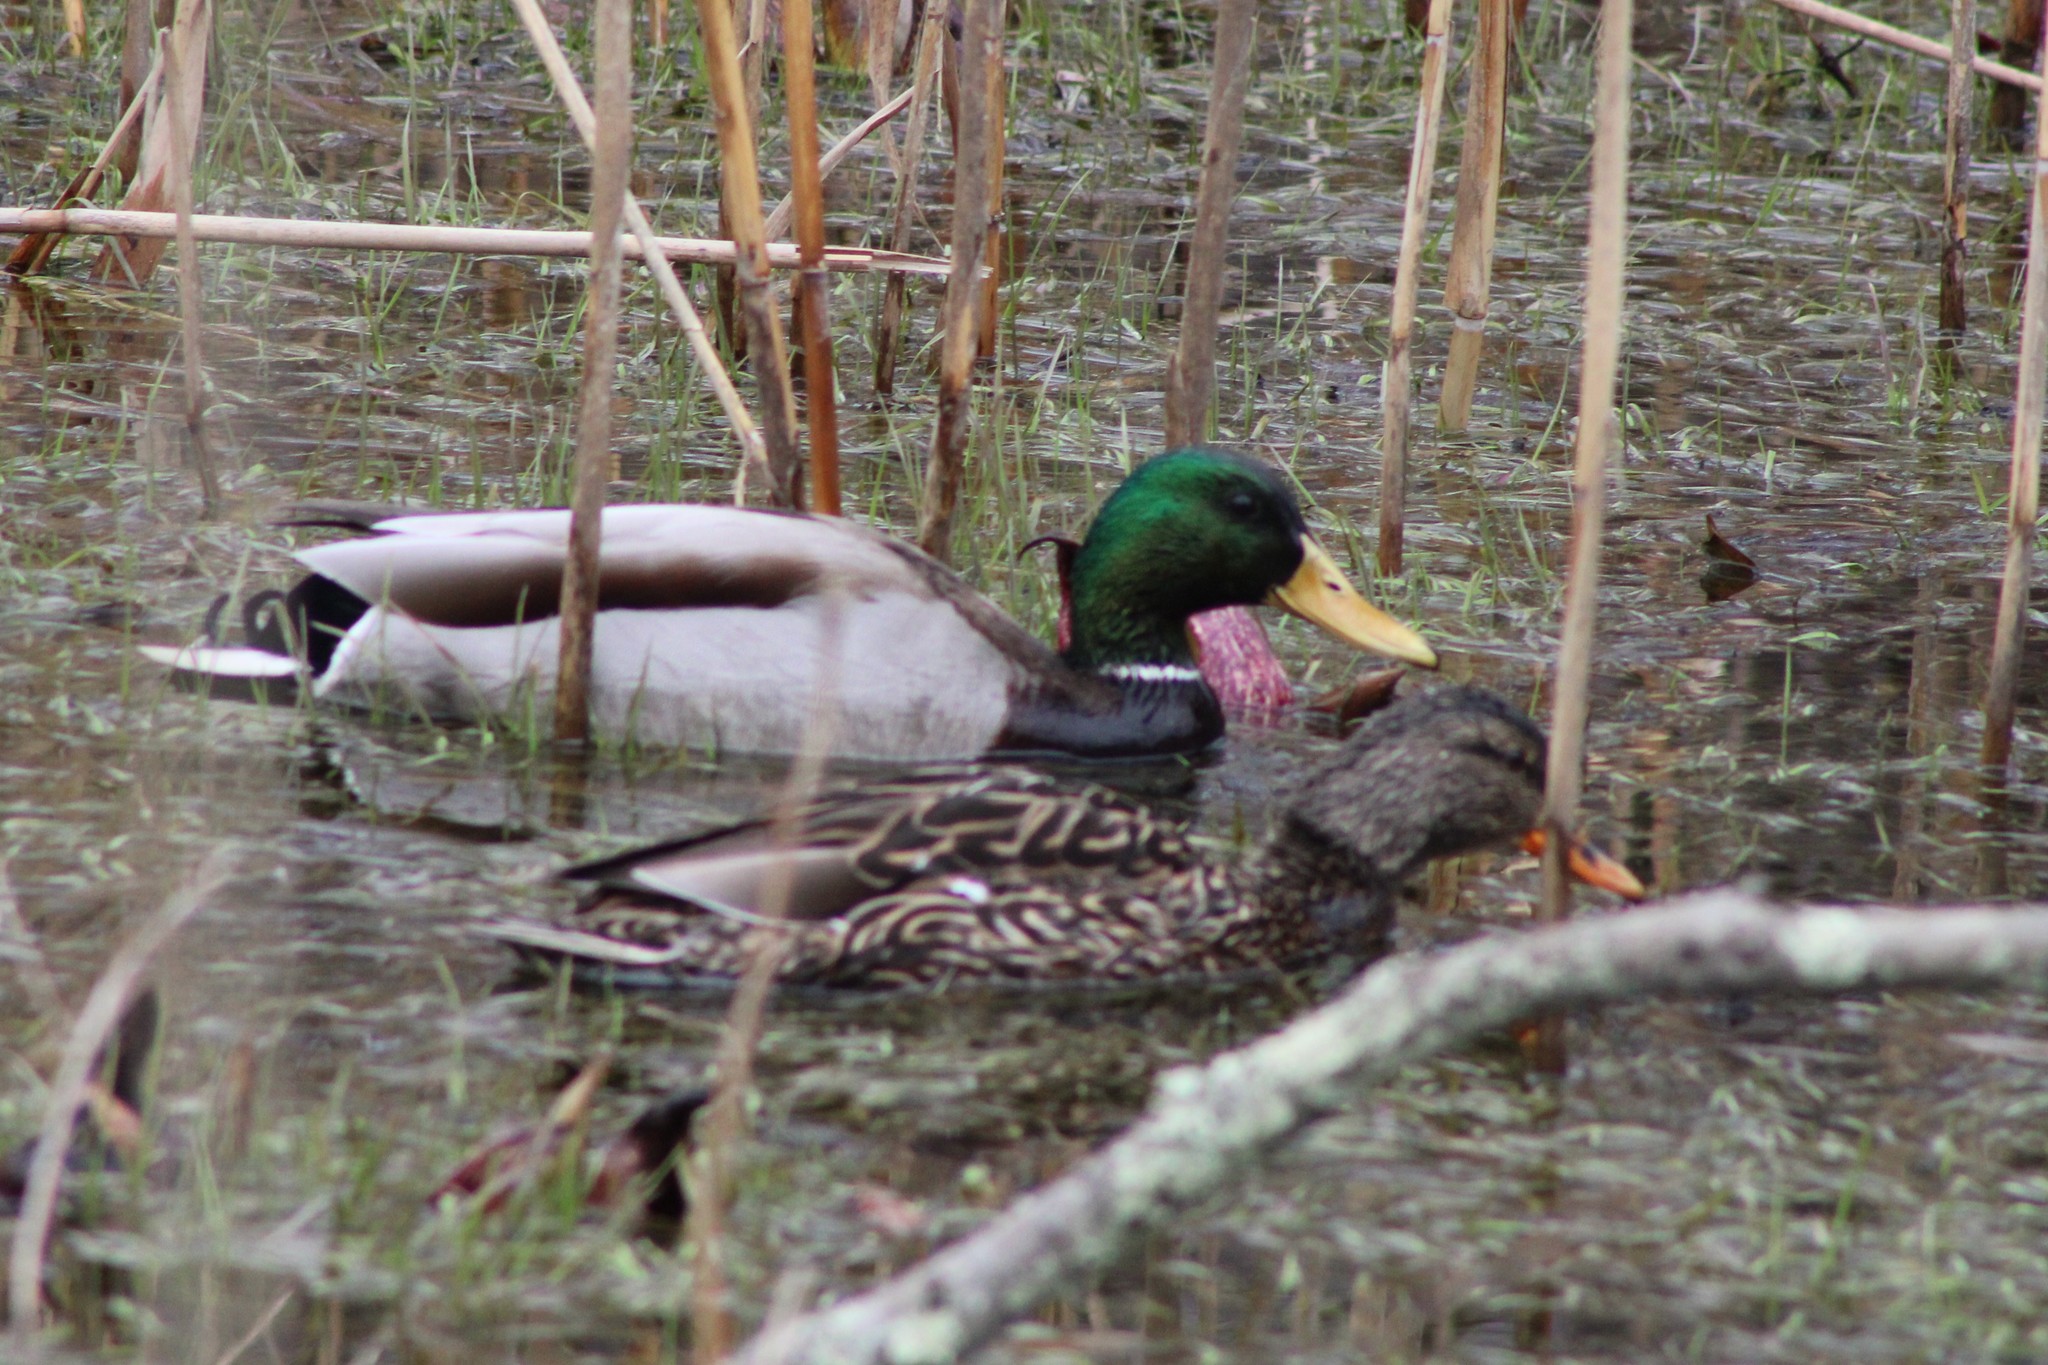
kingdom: Animalia
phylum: Chordata
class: Aves
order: Anseriformes
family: Anatidae
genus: Anas
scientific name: Anas platyrhynchos
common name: Mallard
